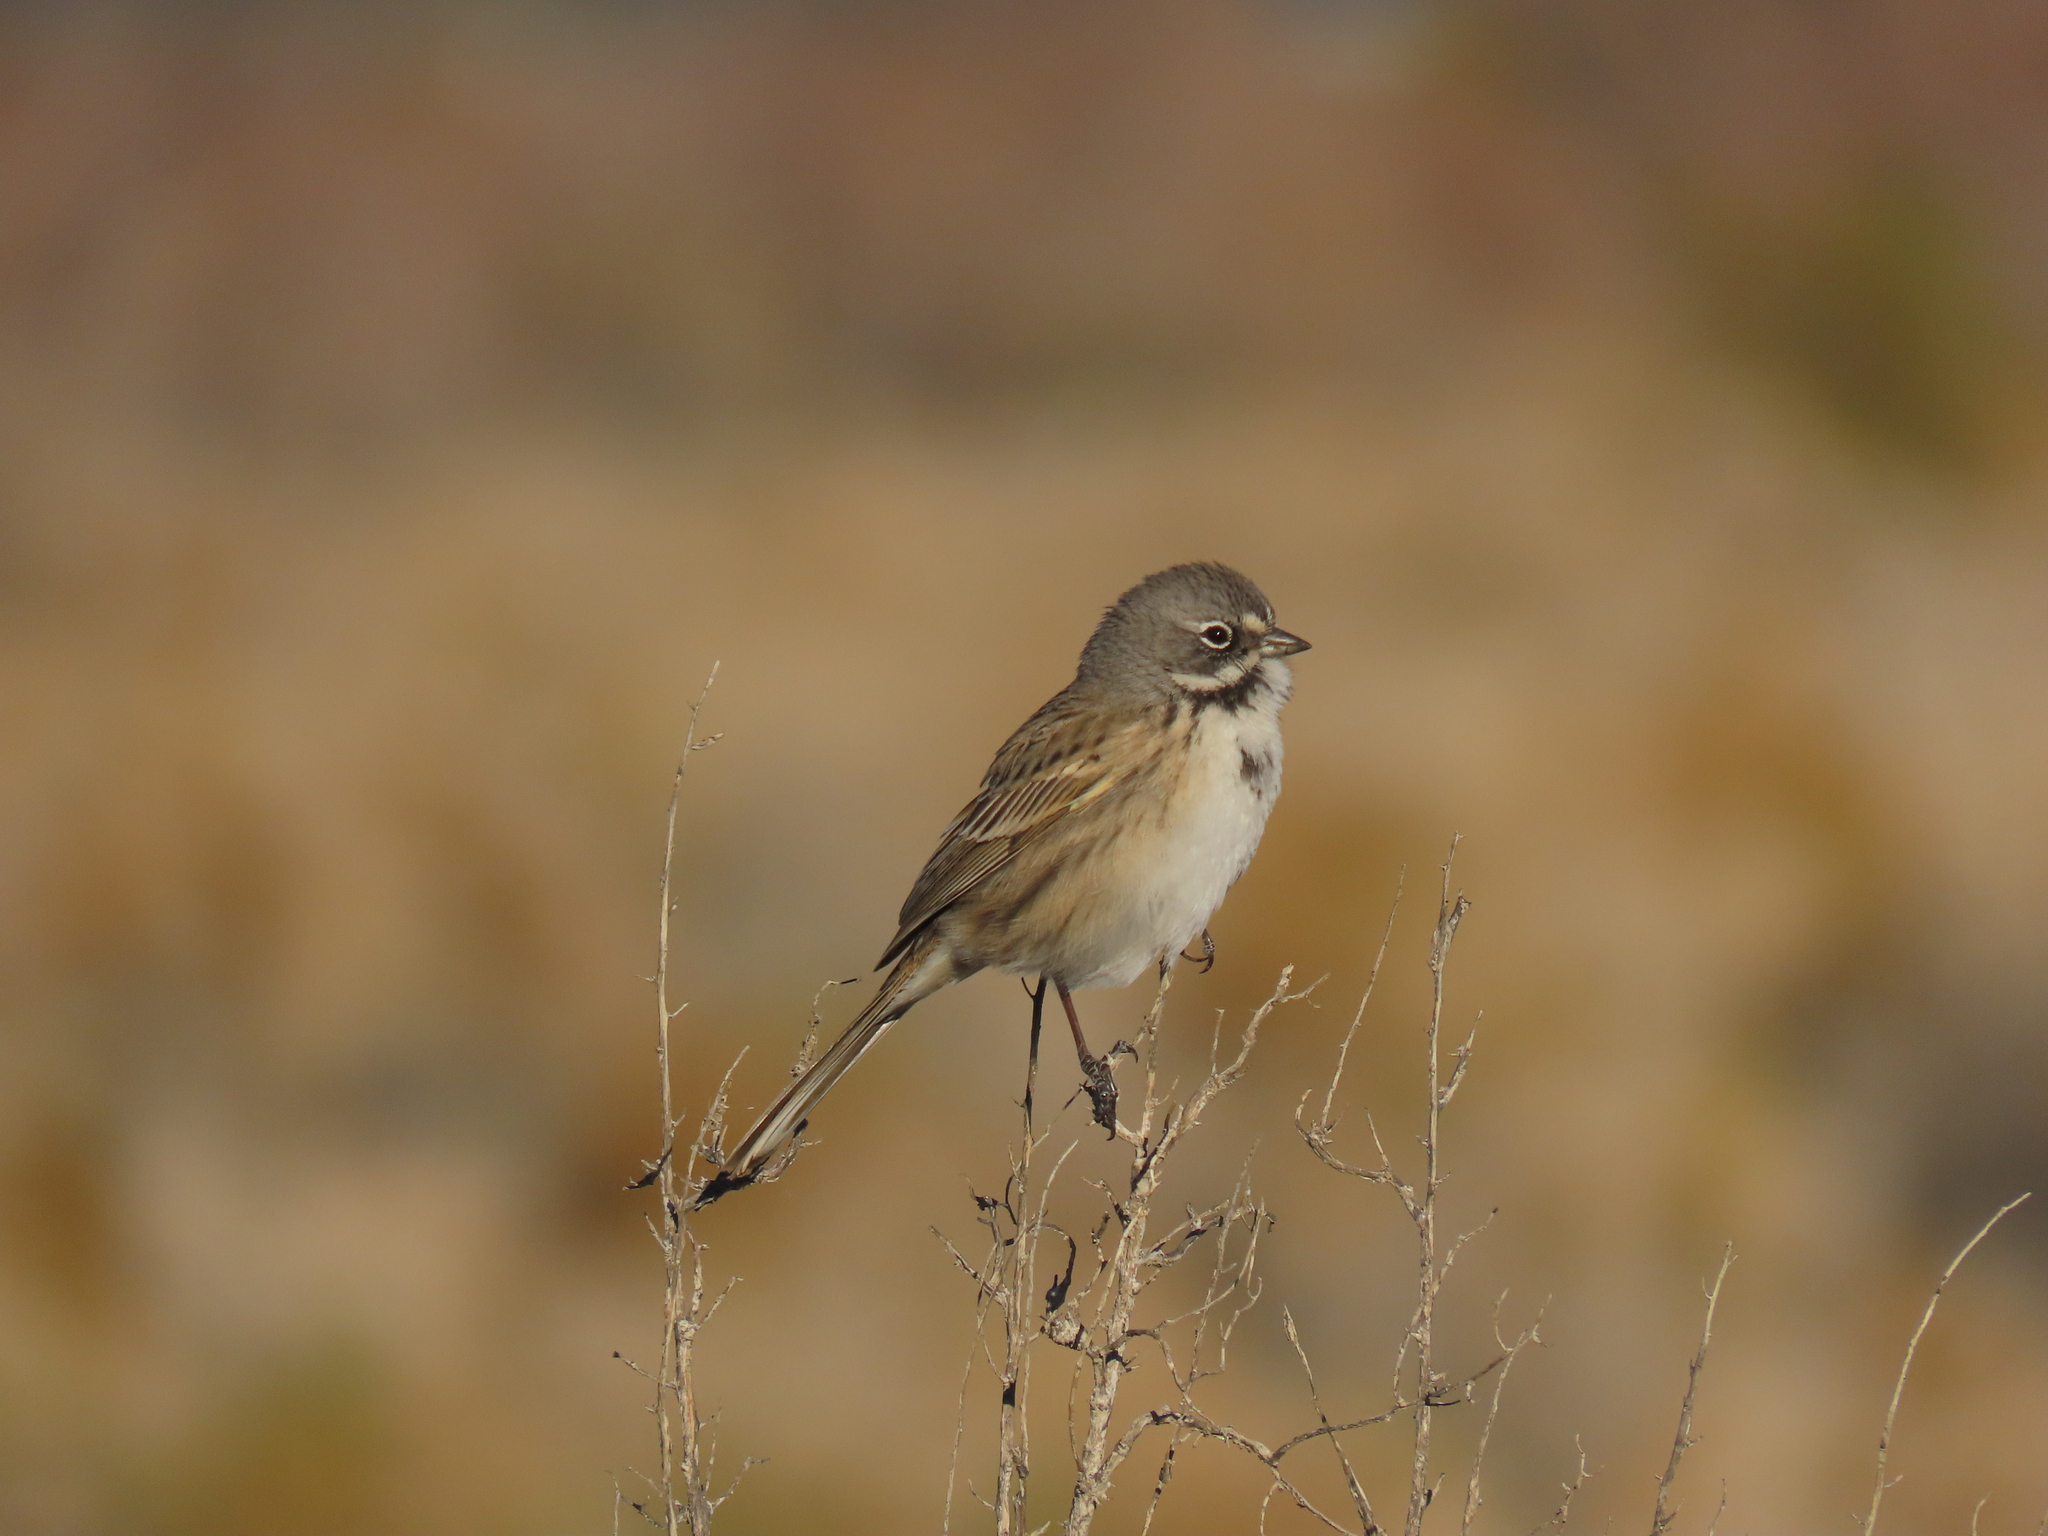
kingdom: Animalia
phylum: Chordata
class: Aves
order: Passeriformes
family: Passerellidae
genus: Artemisiospiza
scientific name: Artemisiospiza belli
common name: Bell's sparrow
